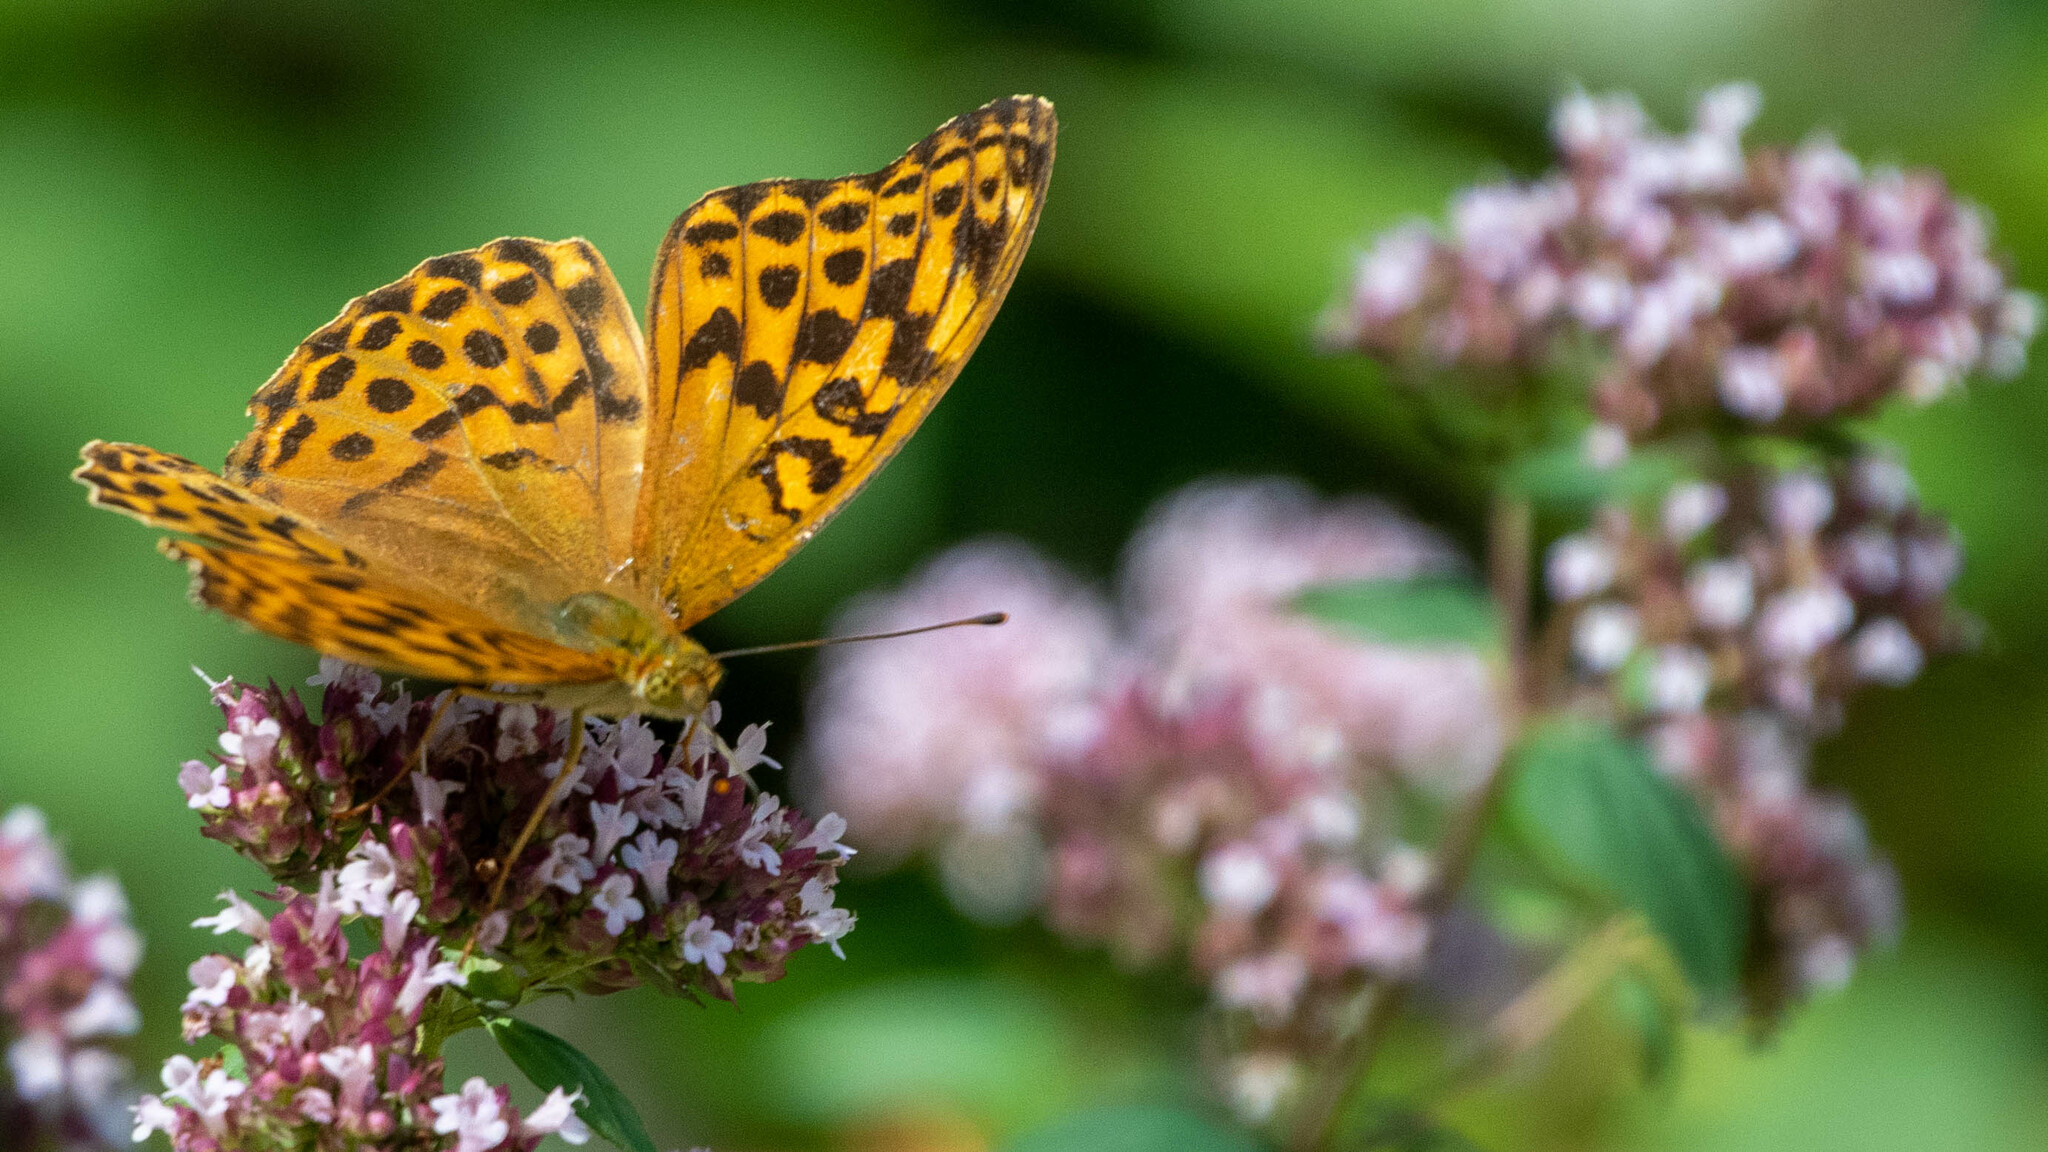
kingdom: Animalia
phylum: Arthropoda
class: Insecta
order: Lepidoptera
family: Nymphalidae
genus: Argynnis
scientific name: Argynnis paphia
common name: Silver-washed fritillary
